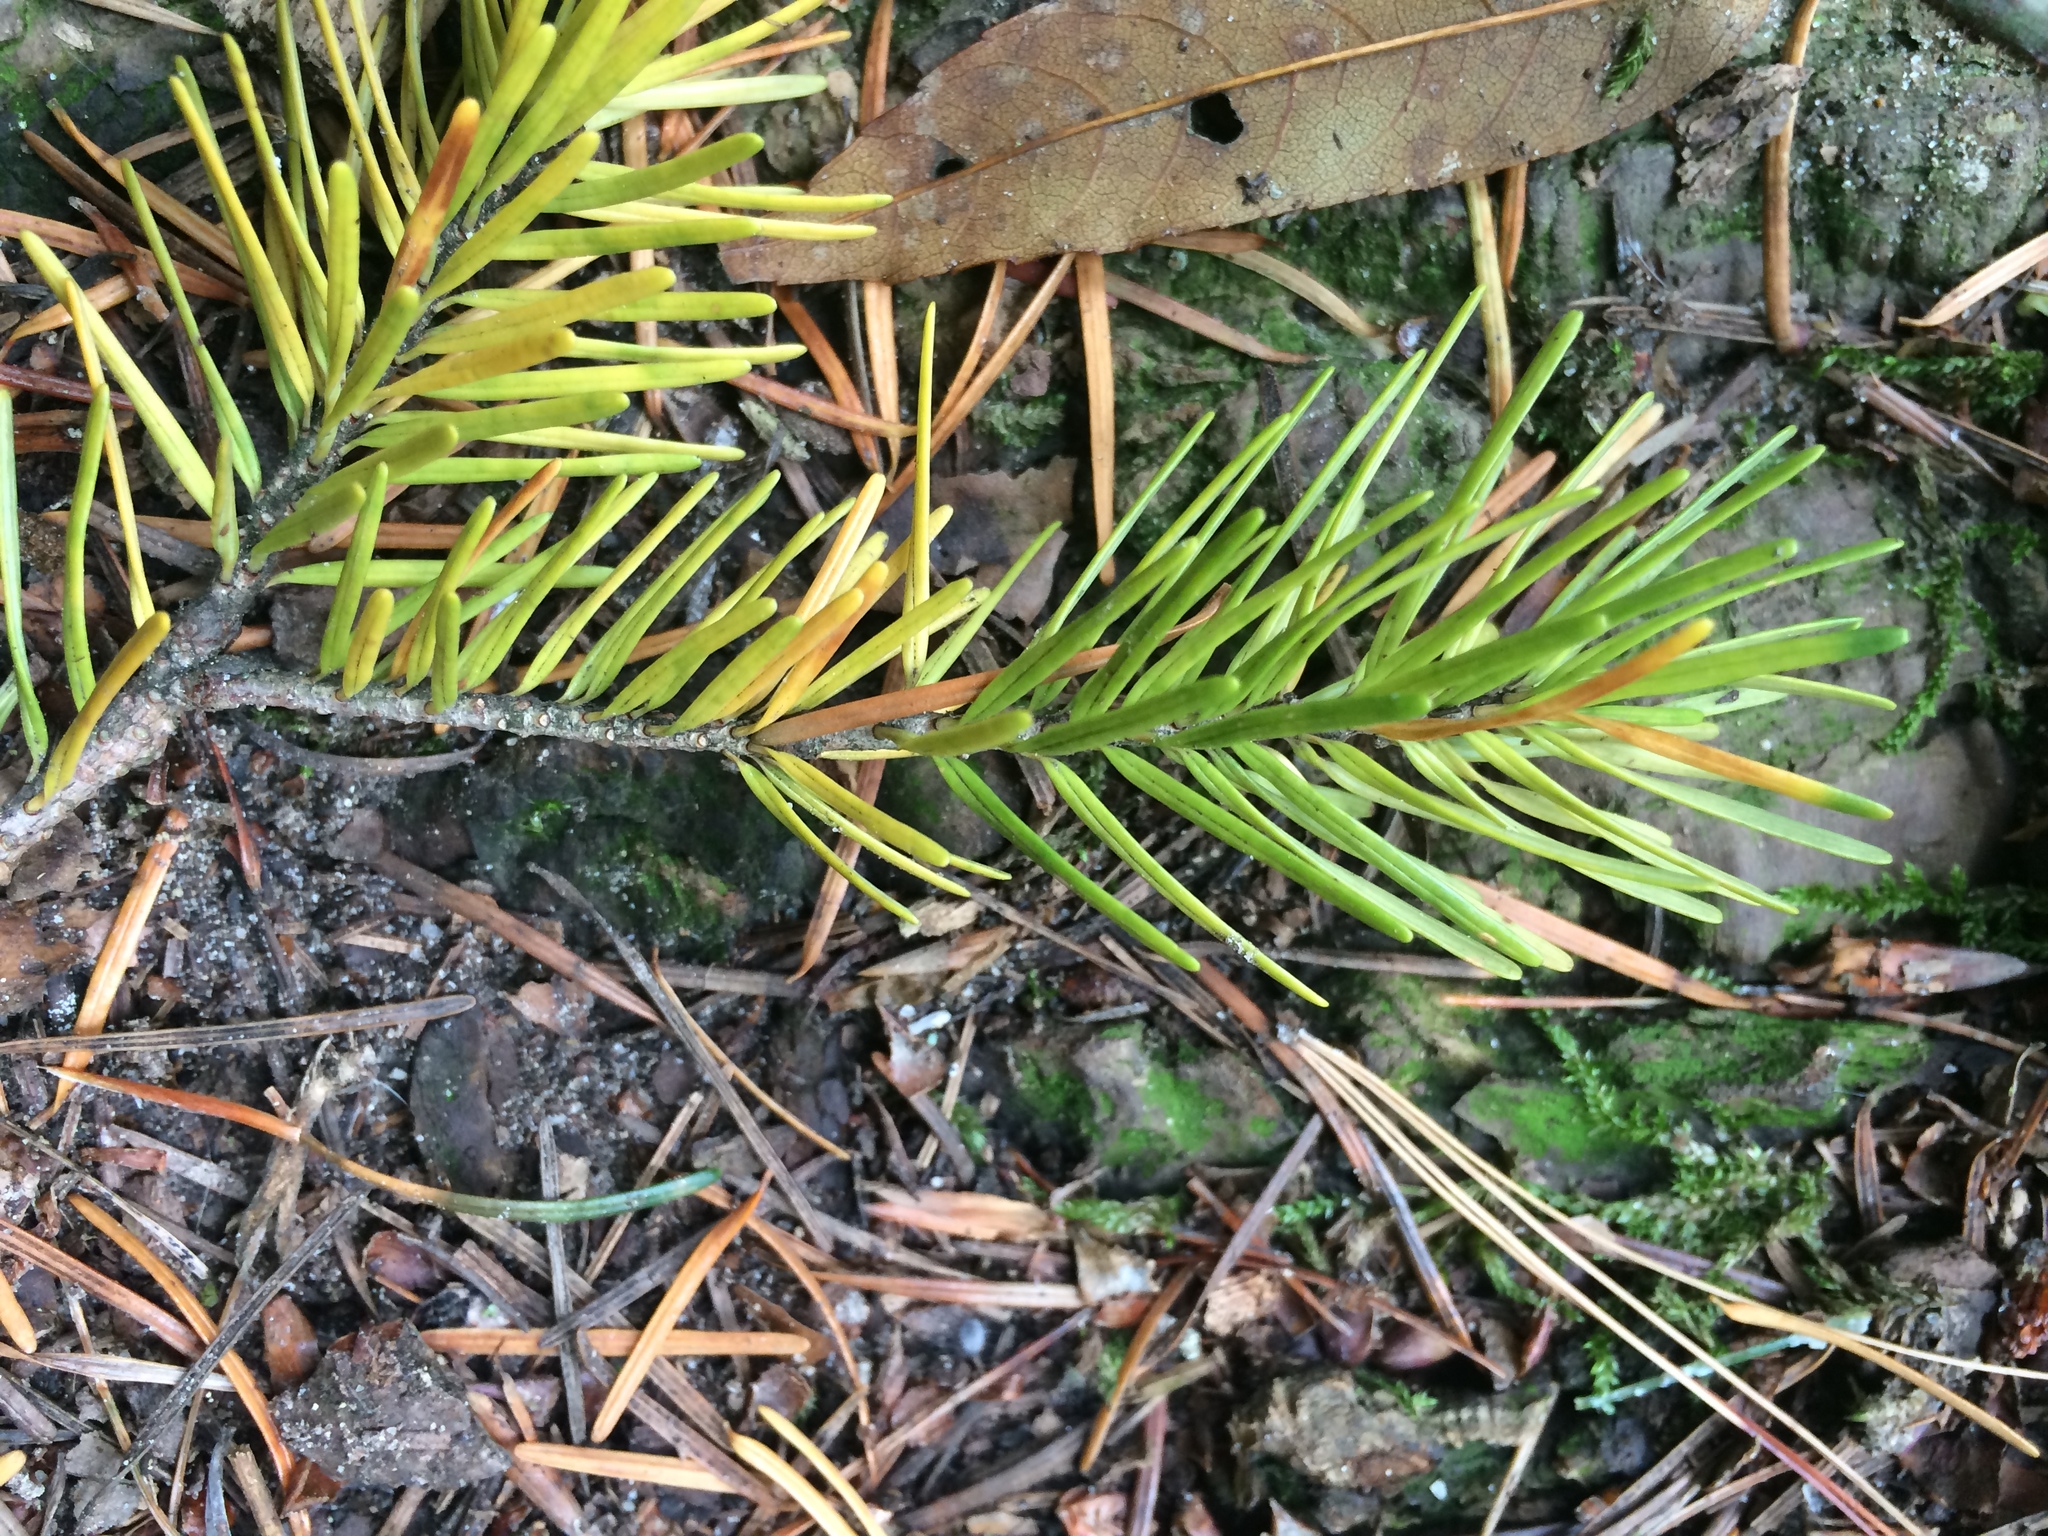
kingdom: Plantae
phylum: Tracheophyta
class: Pinopsida
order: Pinales
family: Pinaceae
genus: Pseudotsuga
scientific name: Pseudotsuga menziesii
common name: Douglas fir
